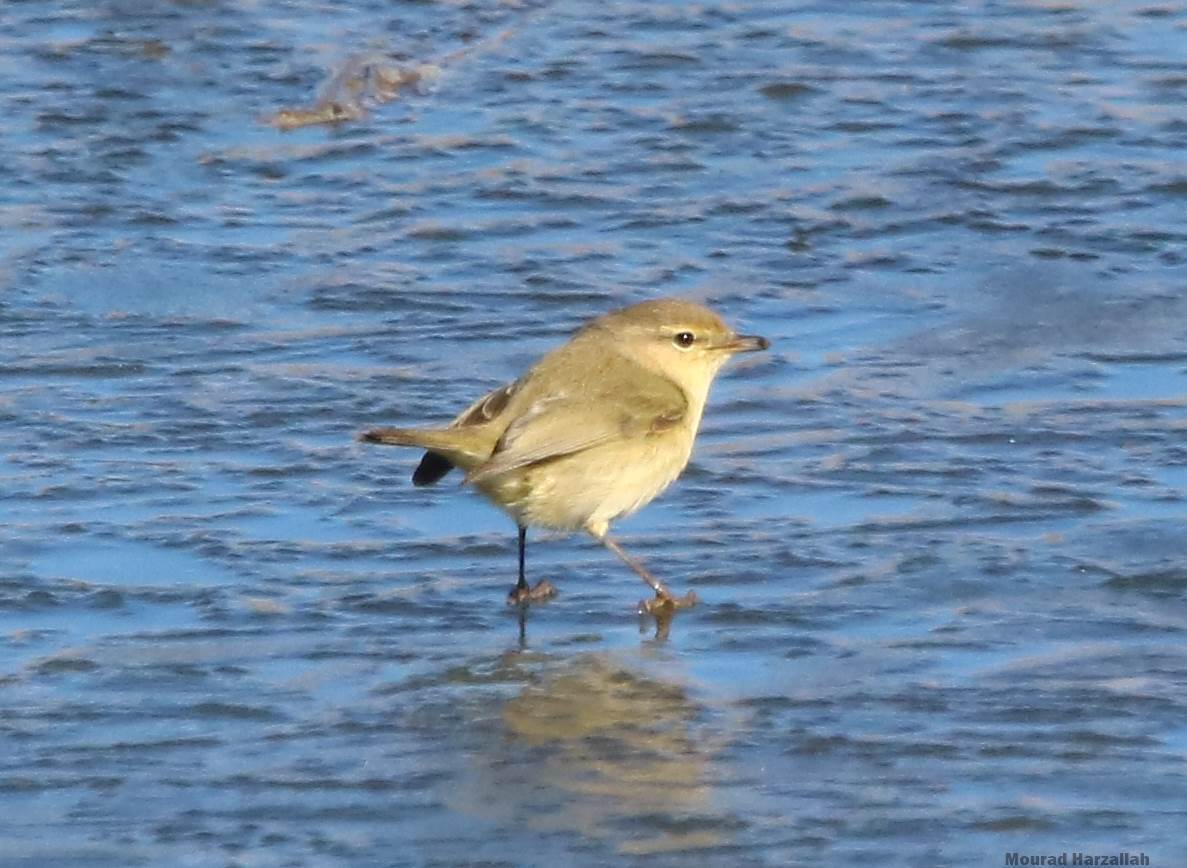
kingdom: Animalia
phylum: Chordata
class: Aves
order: Passeriformes
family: Phylloscopidae
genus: Phylloscopus
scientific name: Phylloscopus collybita
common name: Common chiffchaff
